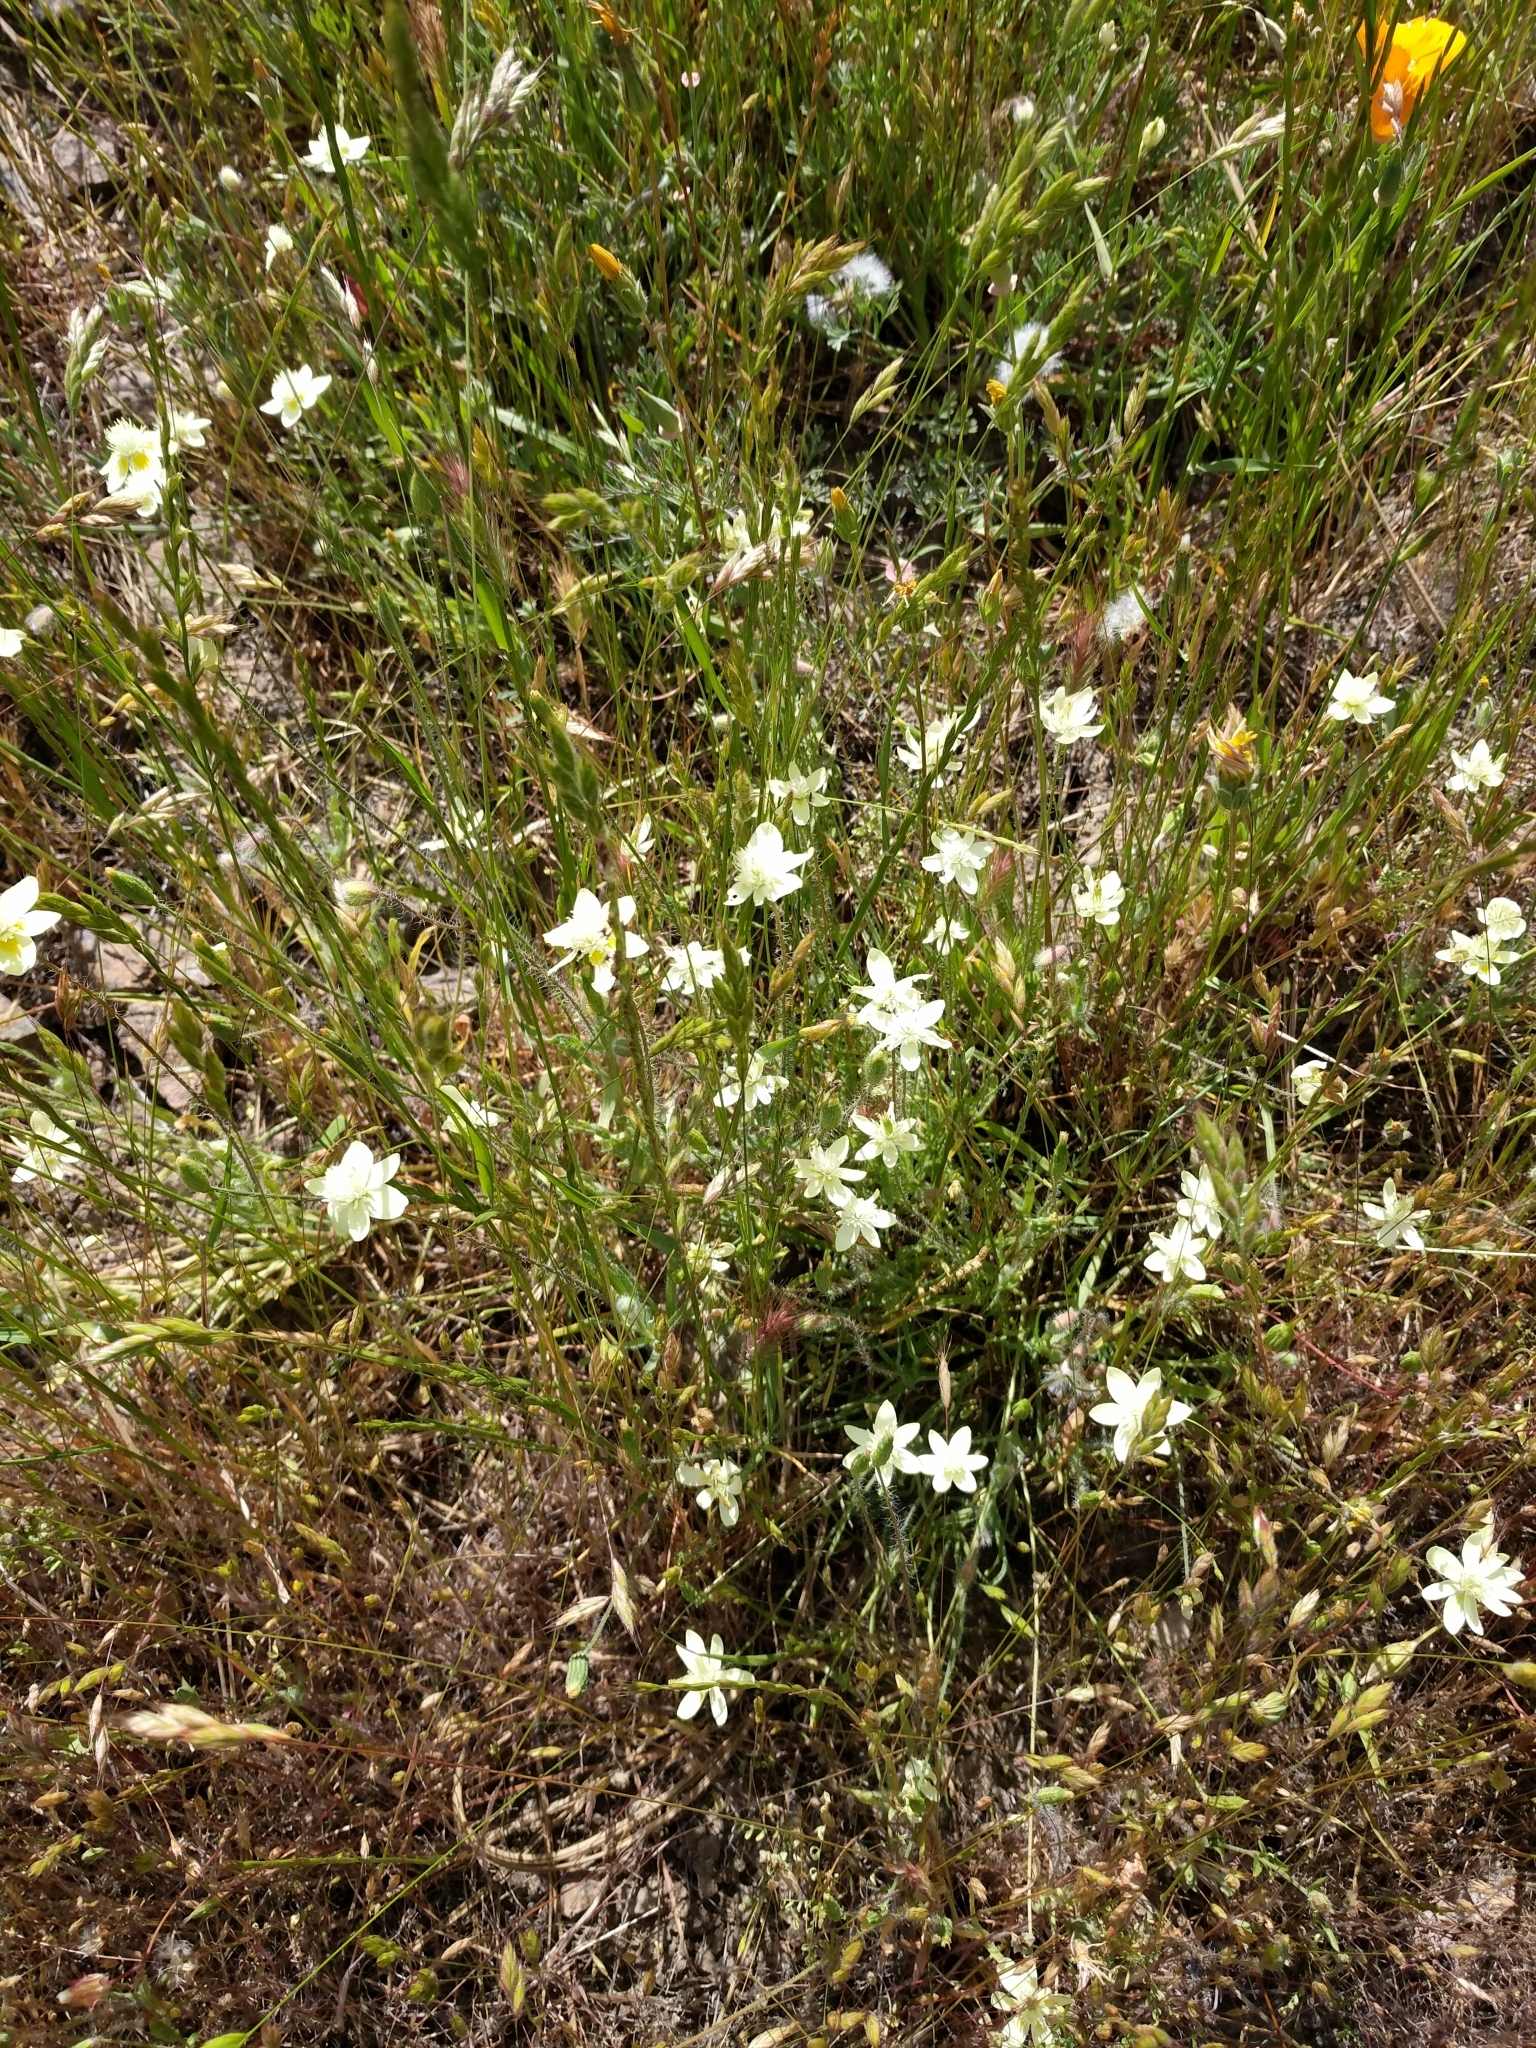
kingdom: Plantae
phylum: Tracheophyta
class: Magnoliopsida
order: Ranunculales
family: Papaveraceae
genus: Platystemon
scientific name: Platystemon californicus
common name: Cream-cups
